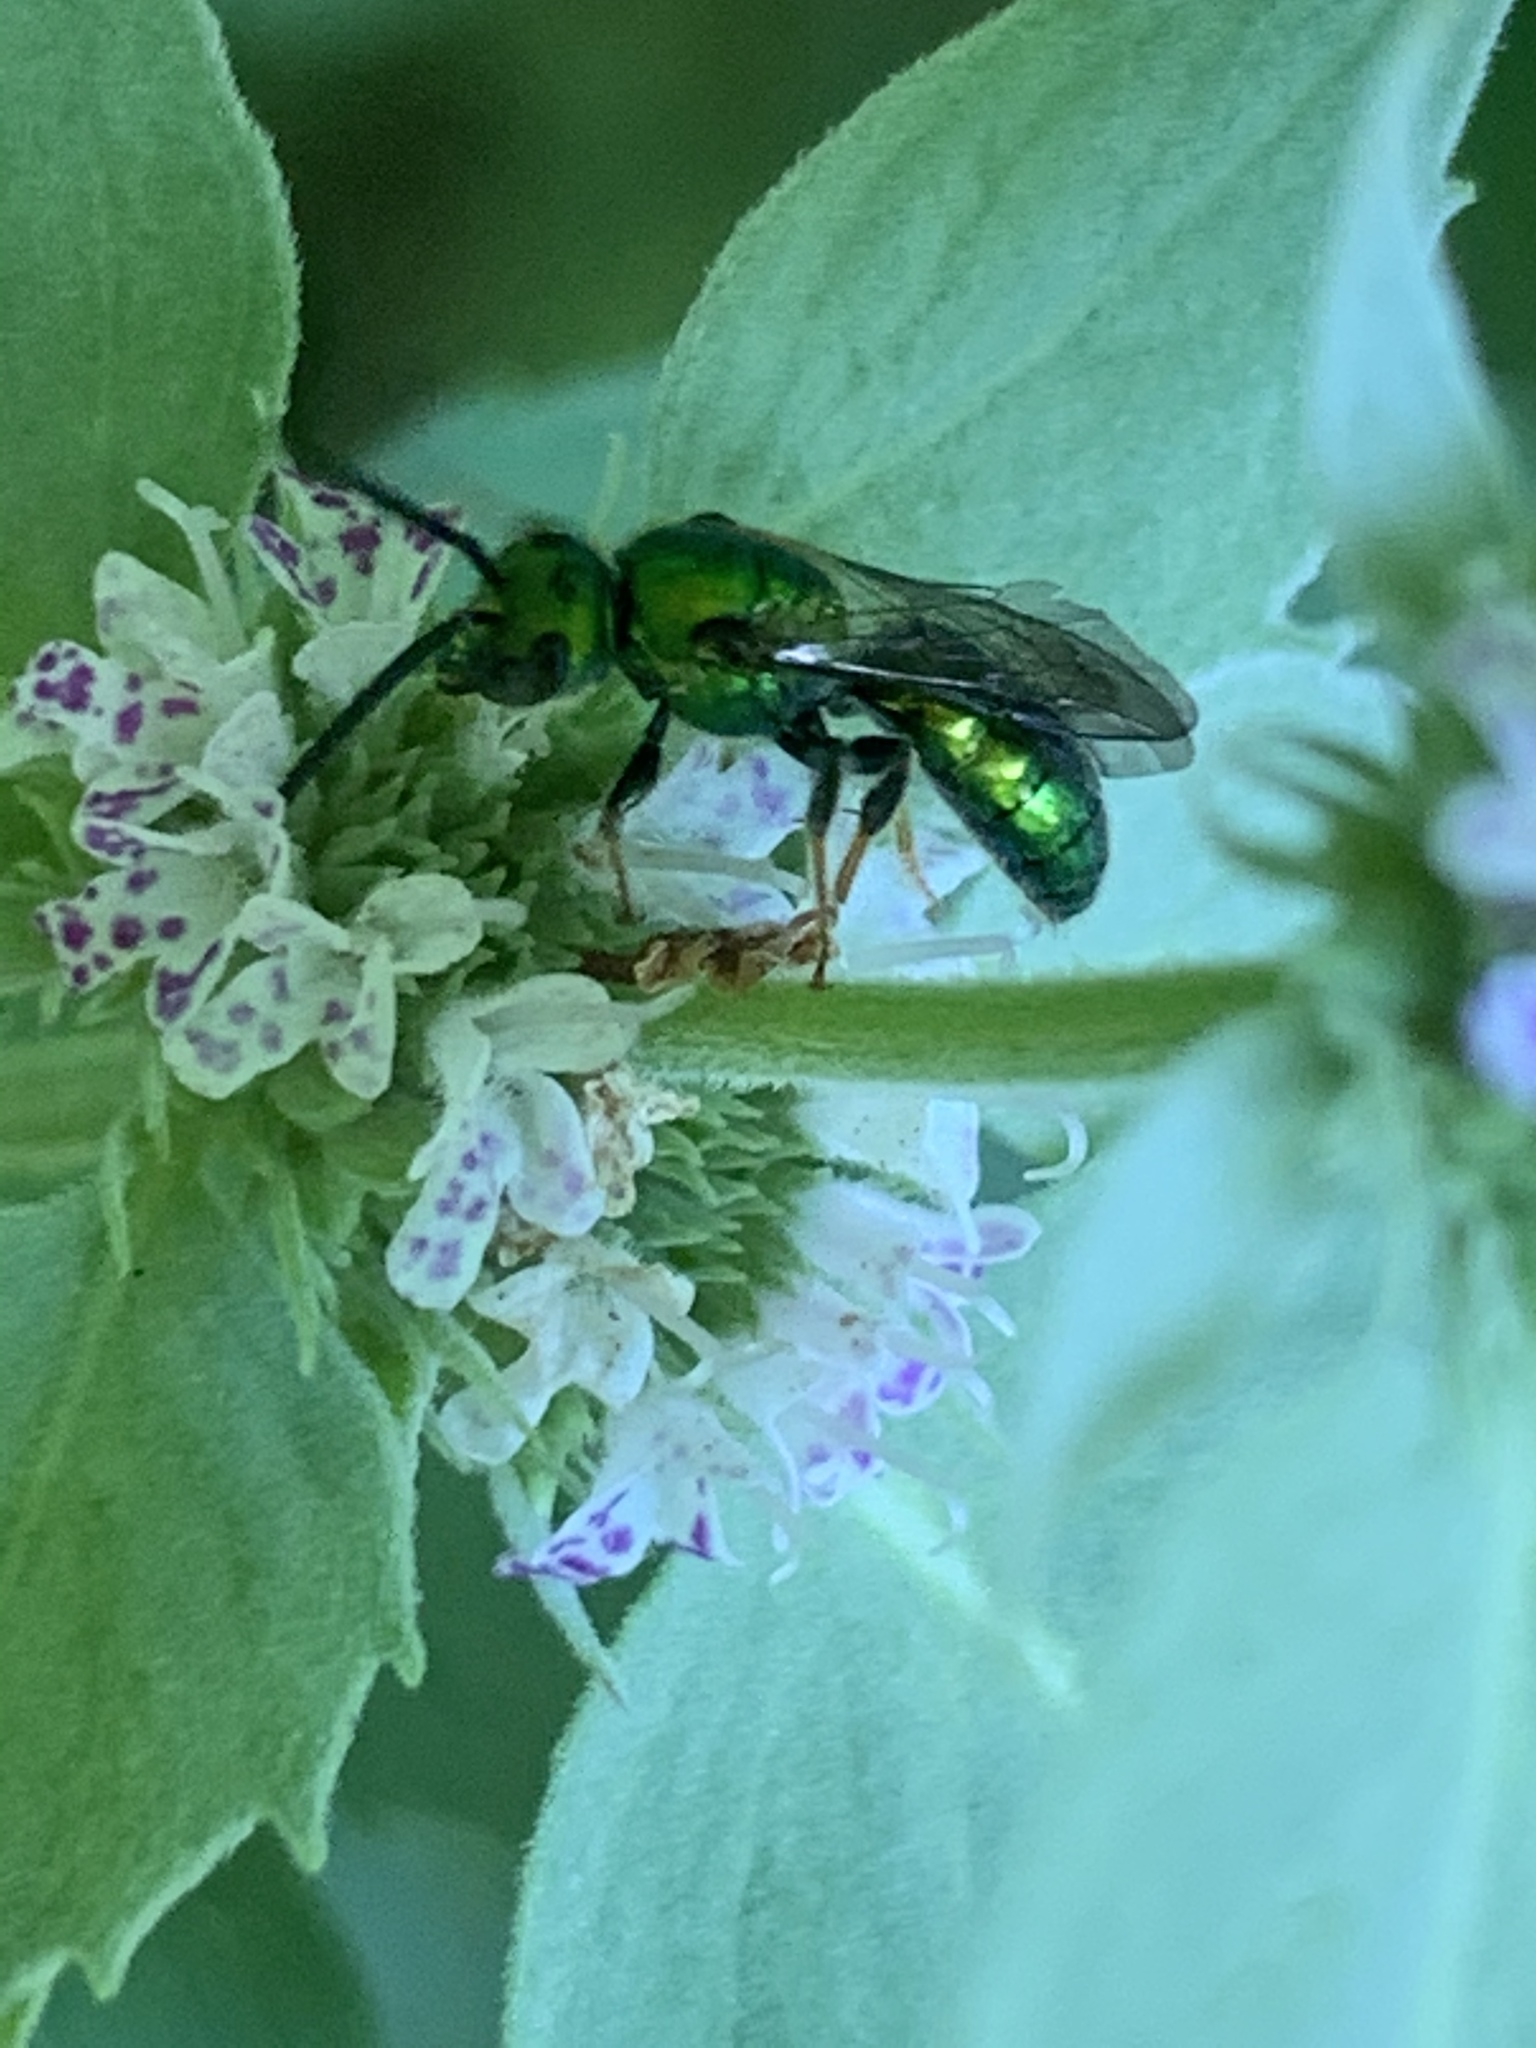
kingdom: Animalia
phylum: Arthropoda
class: Insecta
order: Hymenoptera
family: Halictidae
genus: Augochlora
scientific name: Augochlora pura
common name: Pure green sweat bee
